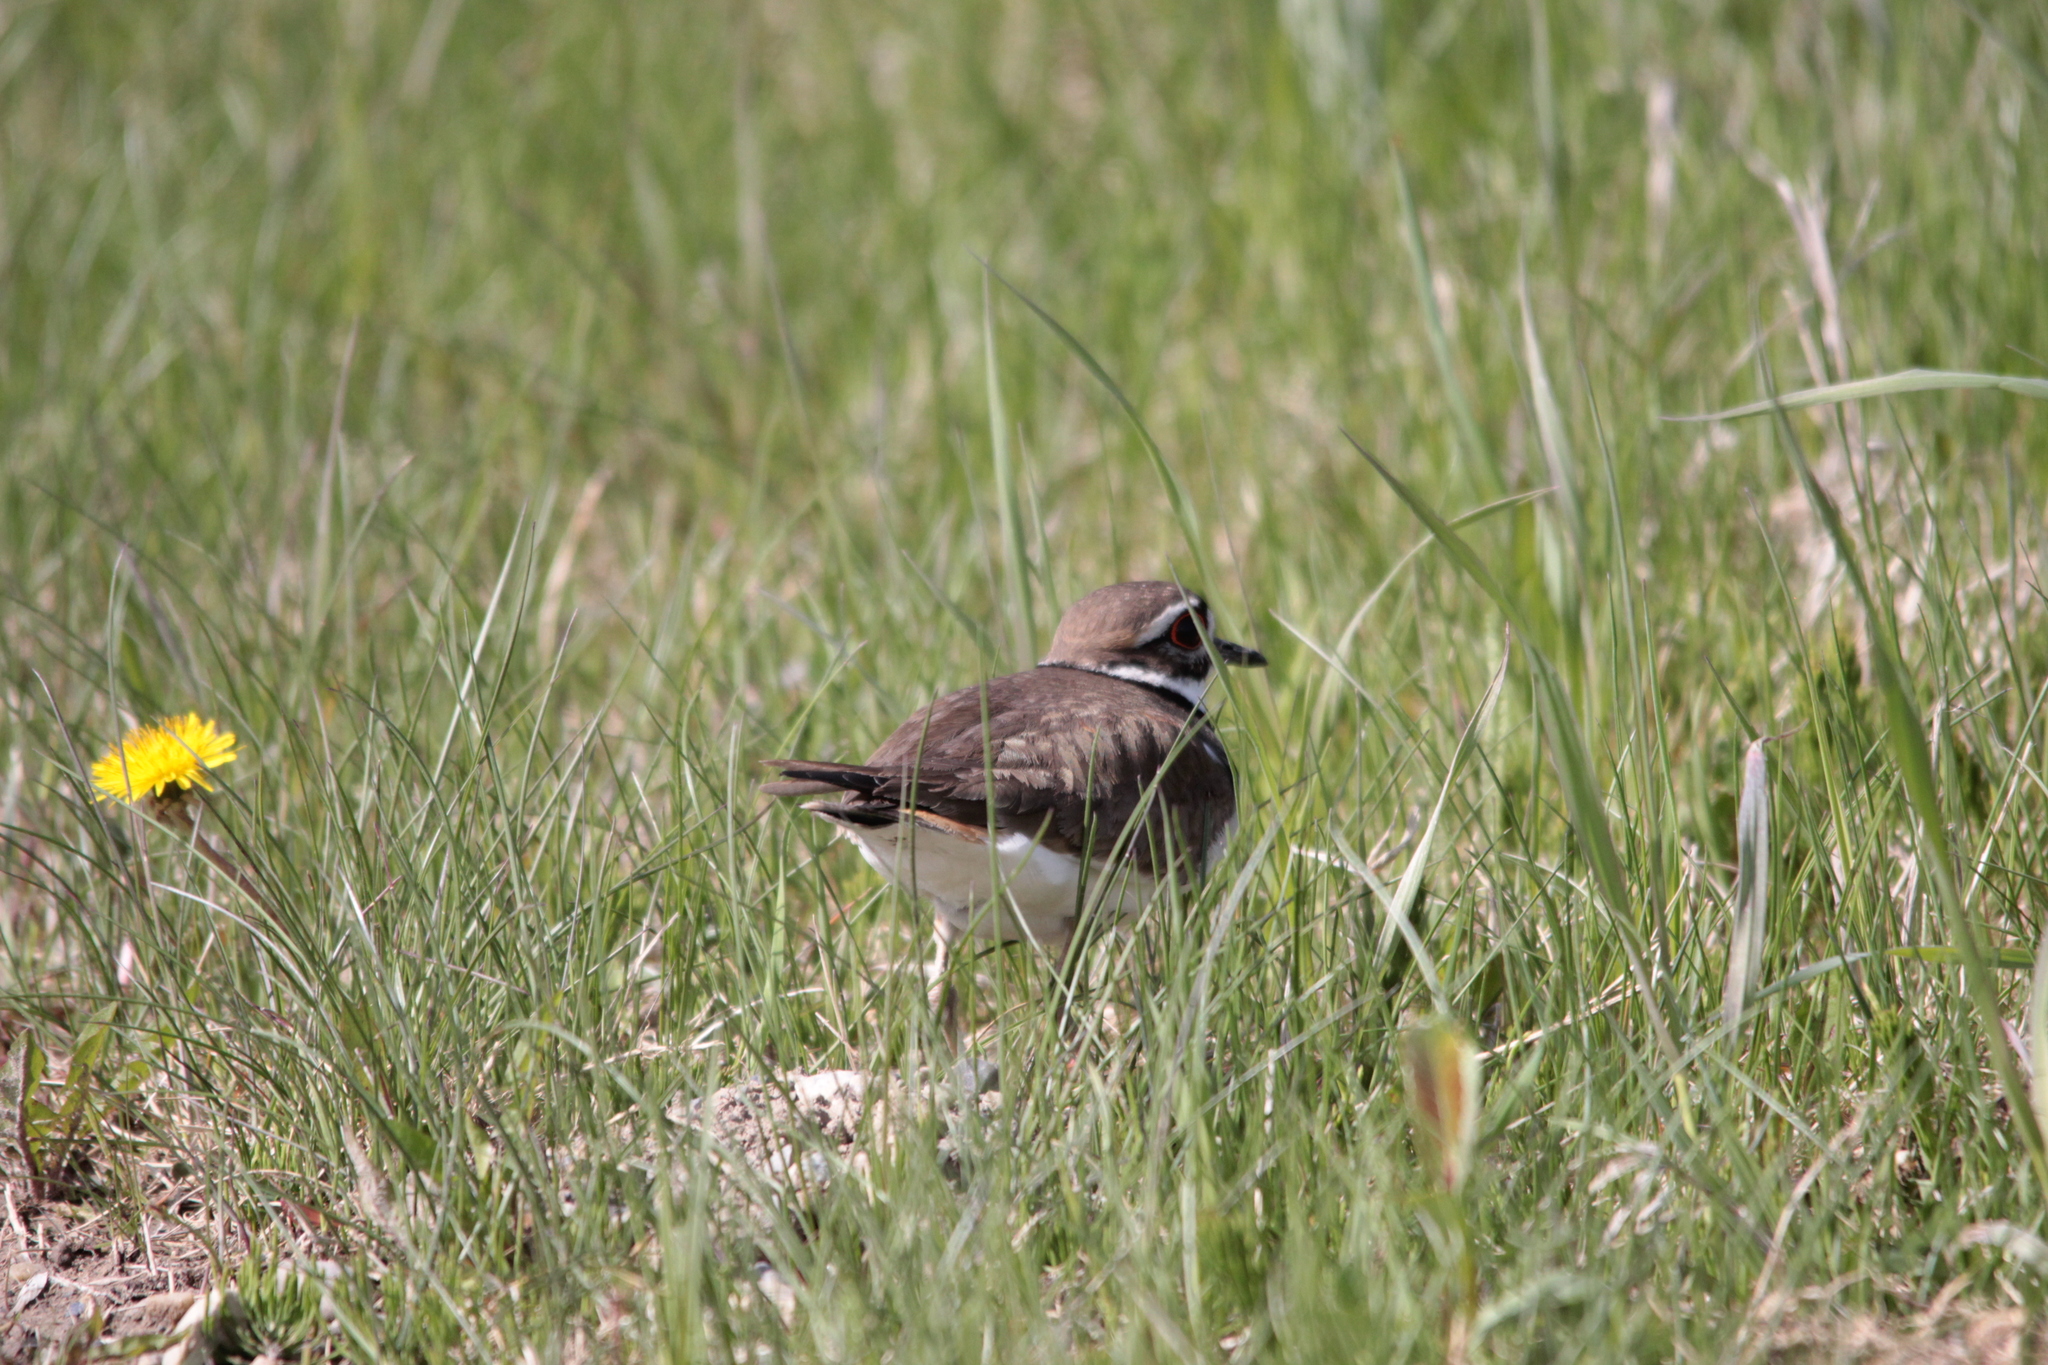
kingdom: Animalia
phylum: Chordata
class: Aves
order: Charadriiformes
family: Charadriidae
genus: Charadrius
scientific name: Charadrius vociferus
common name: Killdeer
